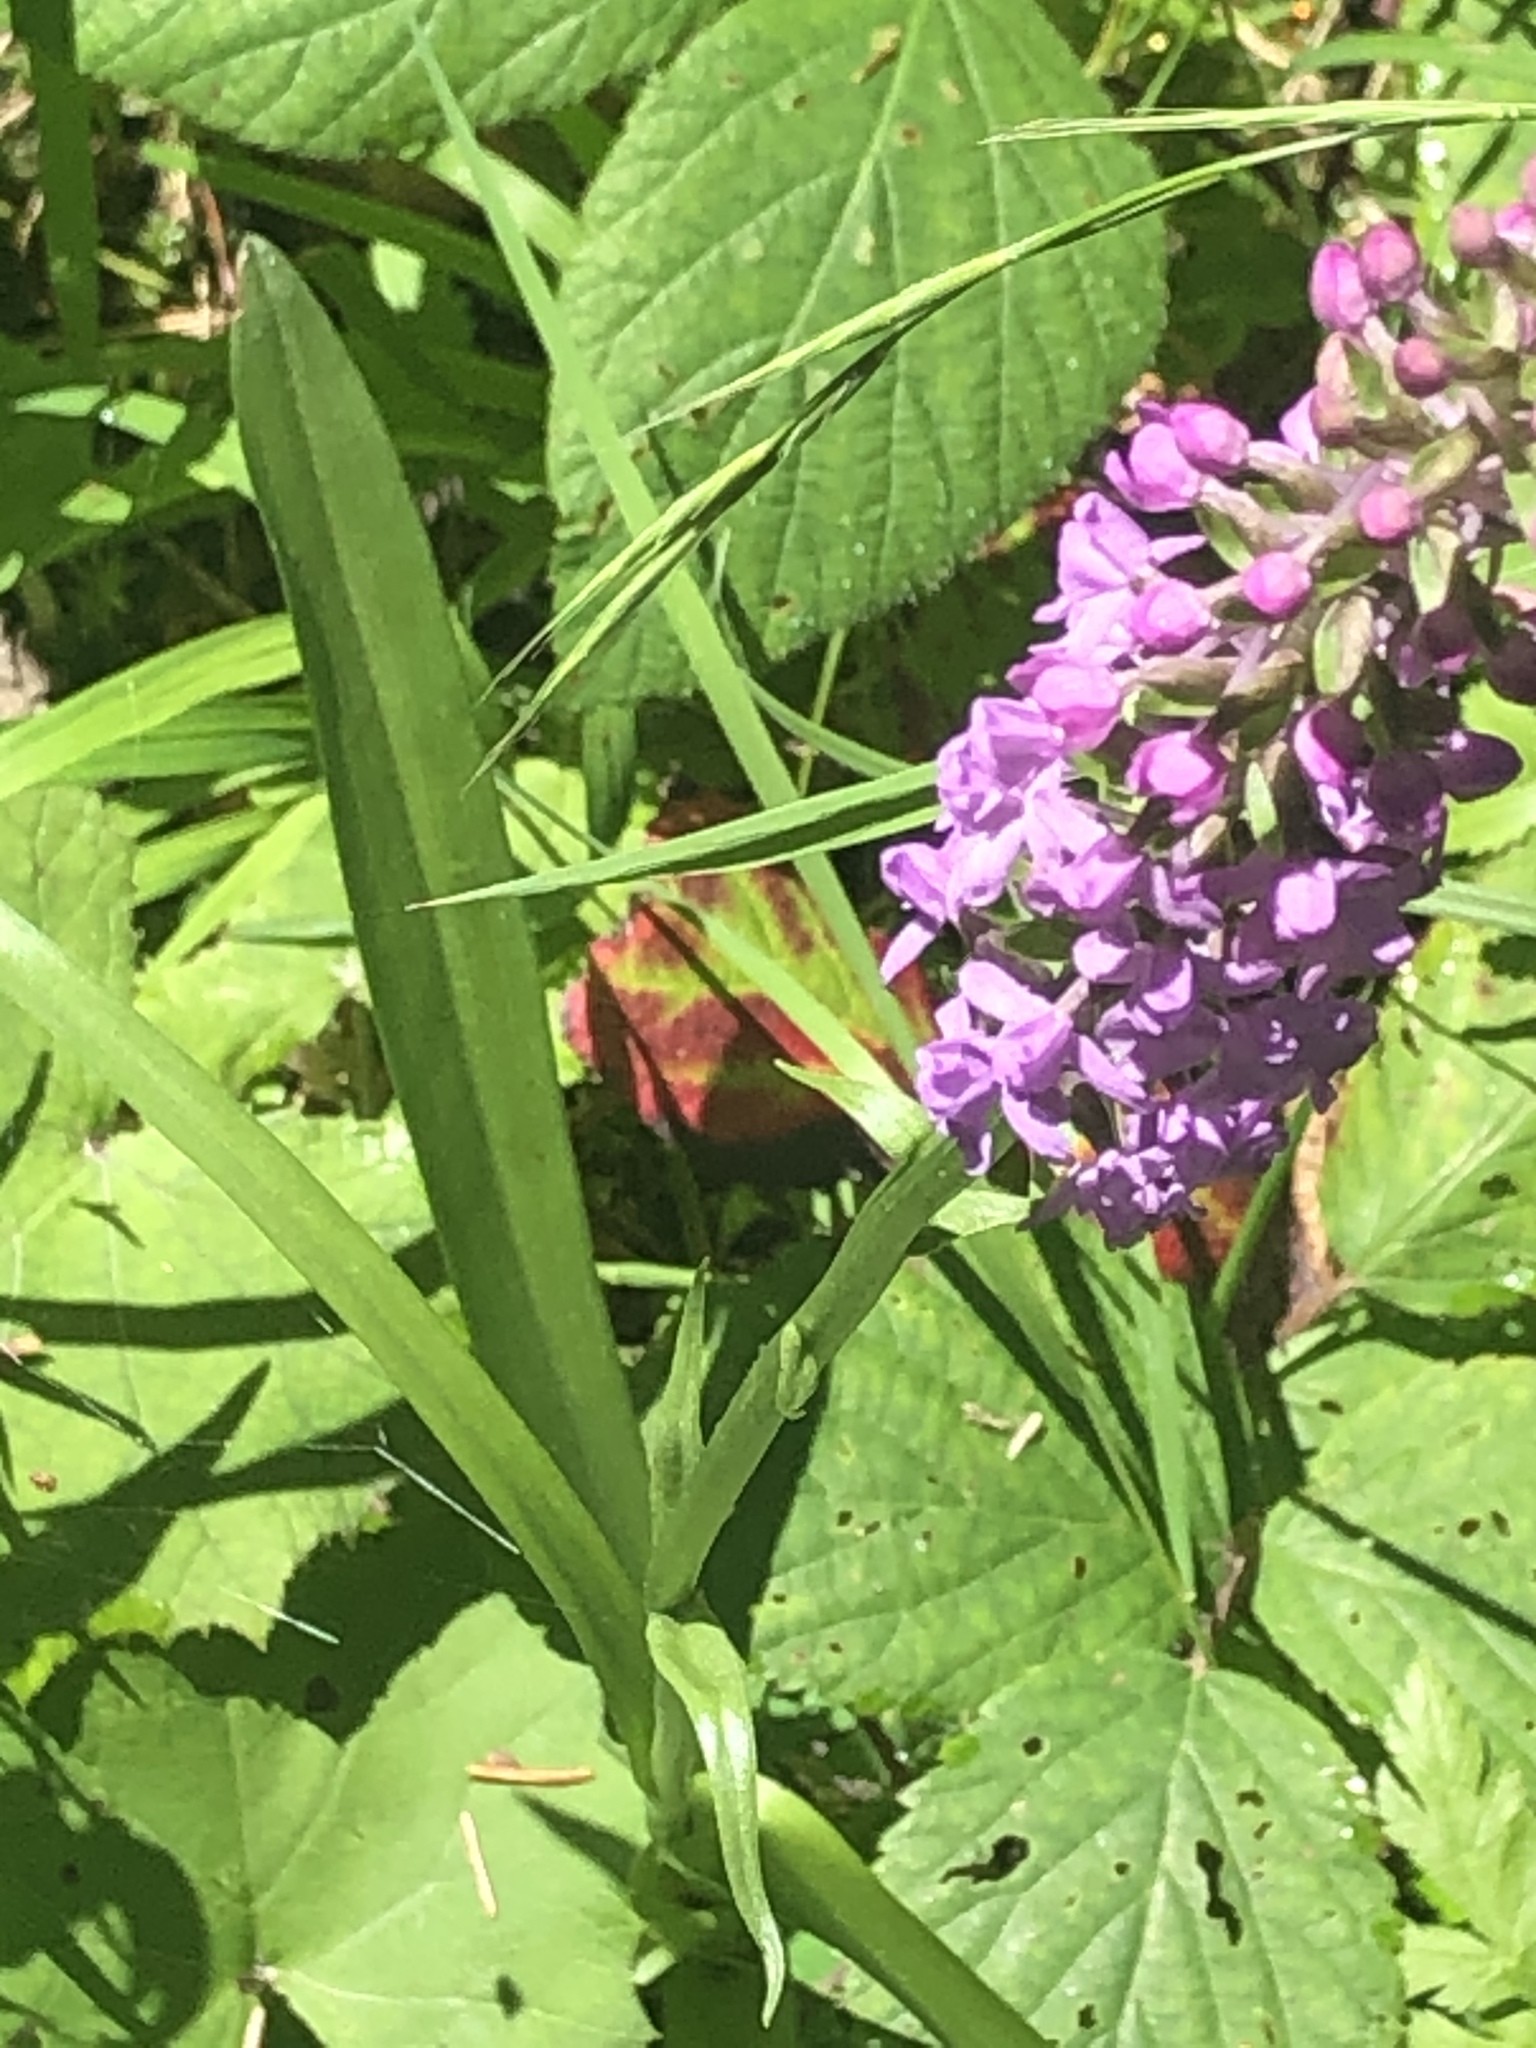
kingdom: Plantae
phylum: Tracheophyta
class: Liliopsida
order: Asparagales
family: Orchidaceae
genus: Gymnadenia
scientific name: Gymnadenia conopsea
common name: Fragrant orchid
